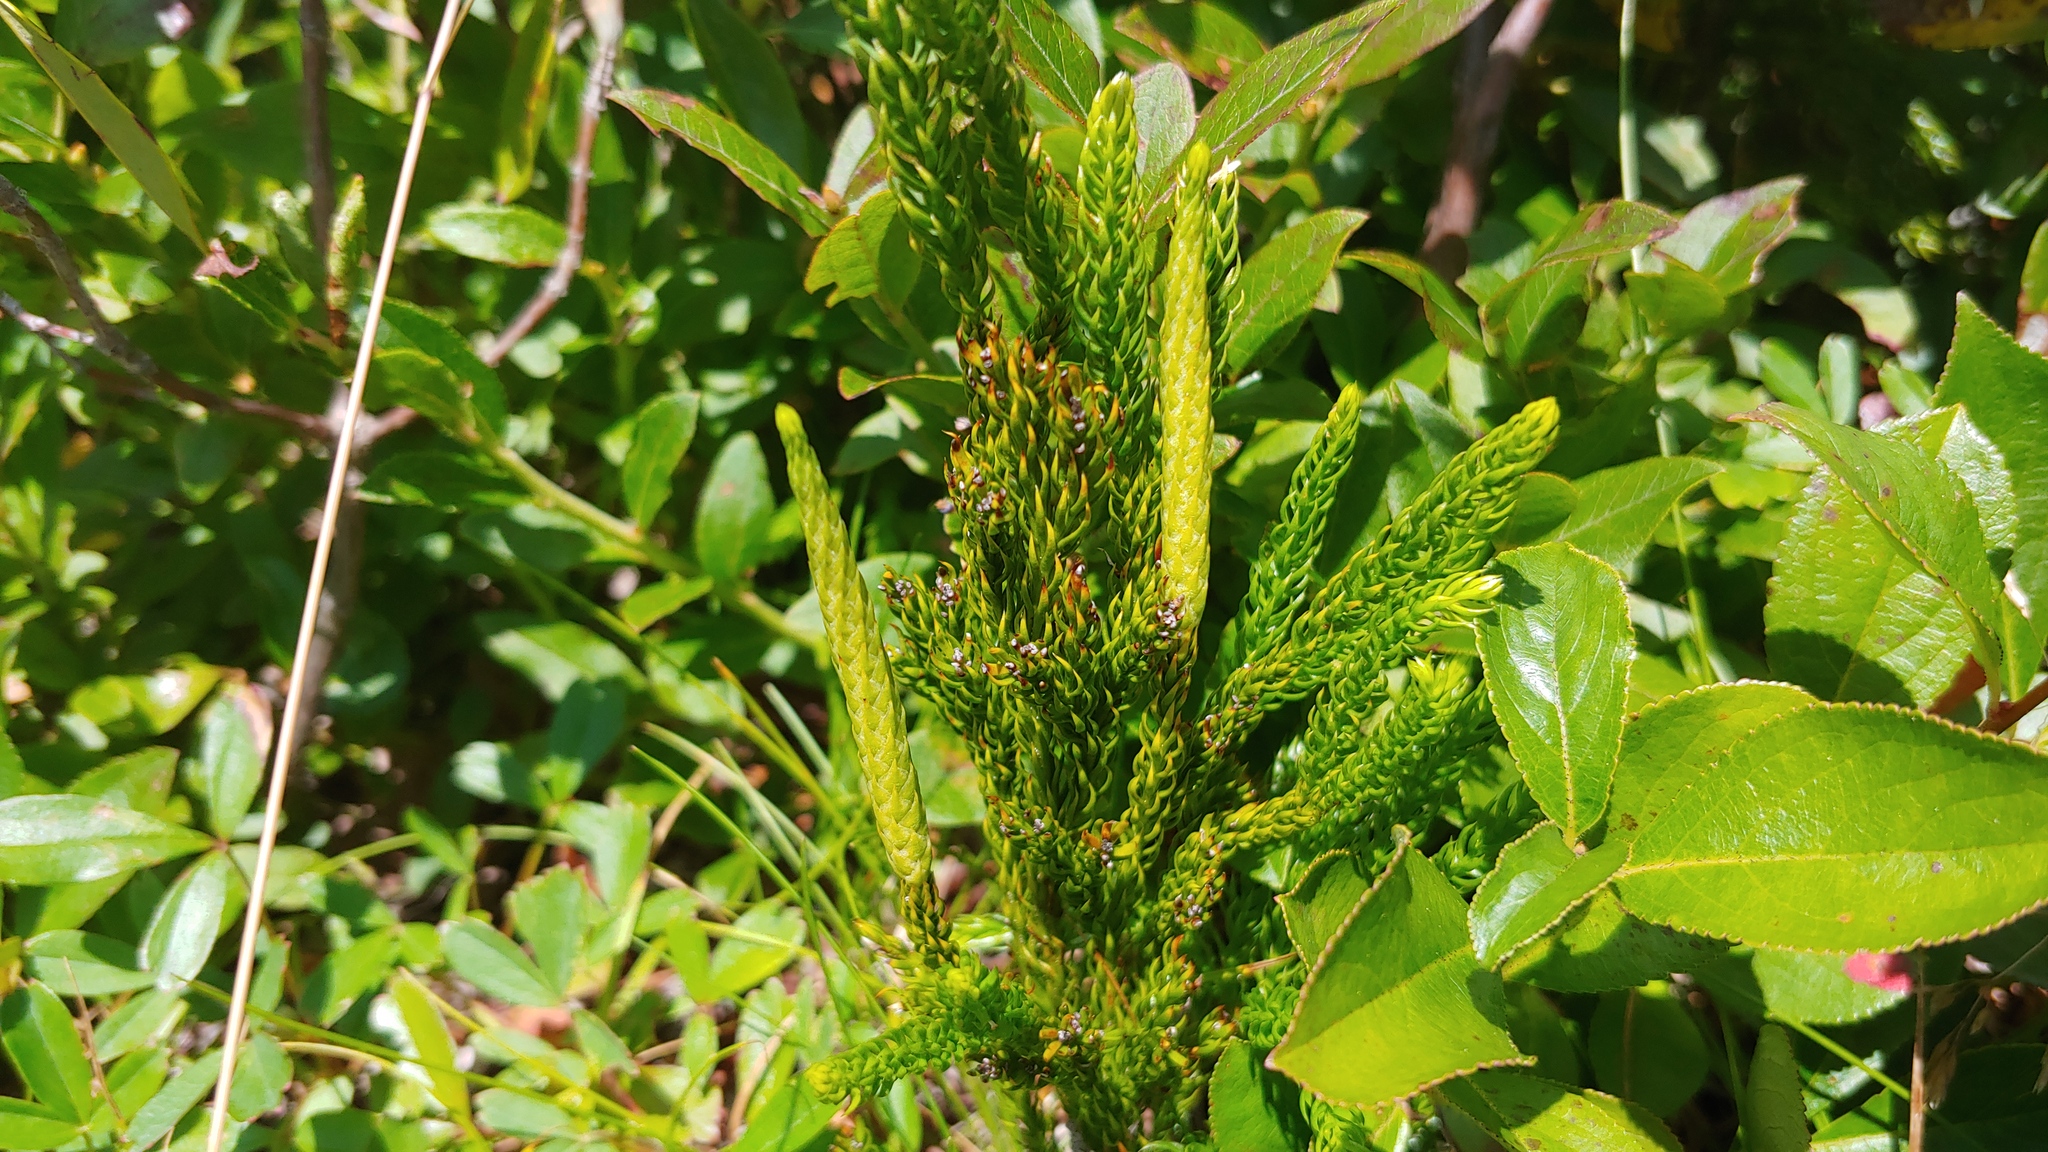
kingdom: Plantae
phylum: Tracheophyta
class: Lycopodiopsida
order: Lycopodiales
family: Lycopodiaceae
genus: Dendrolycopodium
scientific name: Dendrolycopodium hickeyi
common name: Hickey's clubmoss
